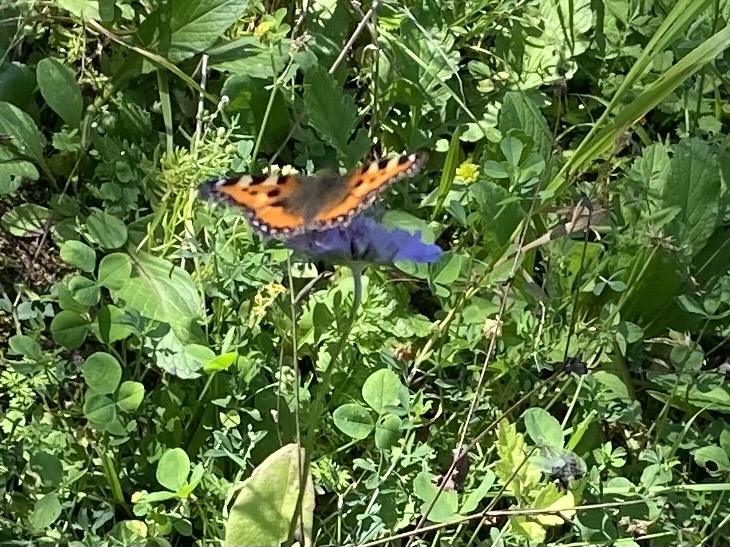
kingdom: Animalia
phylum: Arthropoda
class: Insecta
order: Lepidoptera
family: Nymphalidae
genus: Aglais
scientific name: Aglais urticae
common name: Small tortoiseshell
